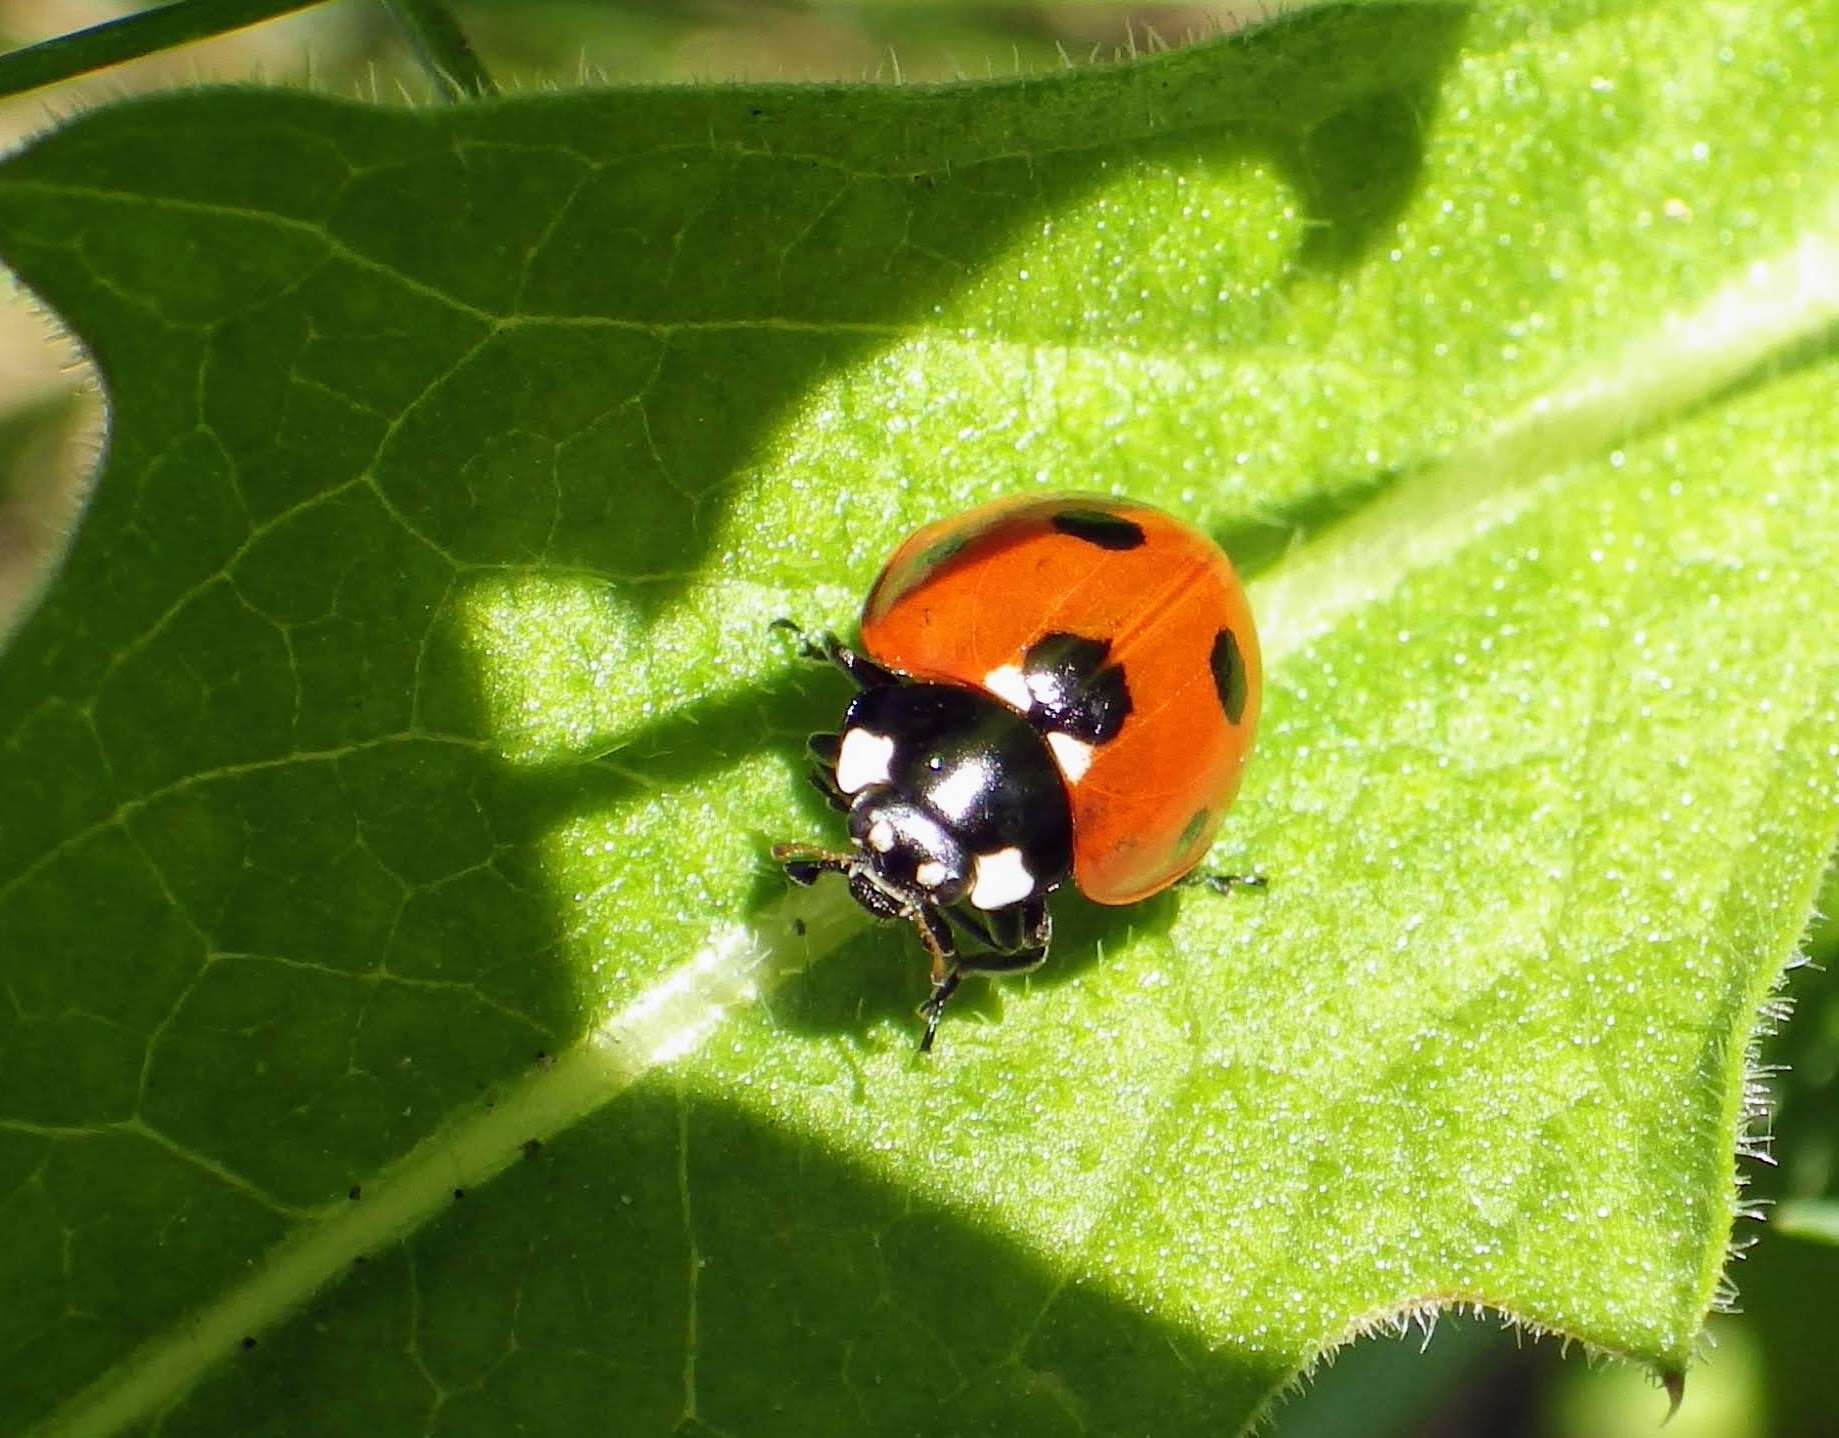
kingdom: Animalia
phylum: Arthropoda
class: Insecta
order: Coleoptera
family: Coccinellidae
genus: Coccinella
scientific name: Coccinella septempunctata
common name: Sevenspotted lady beetle
